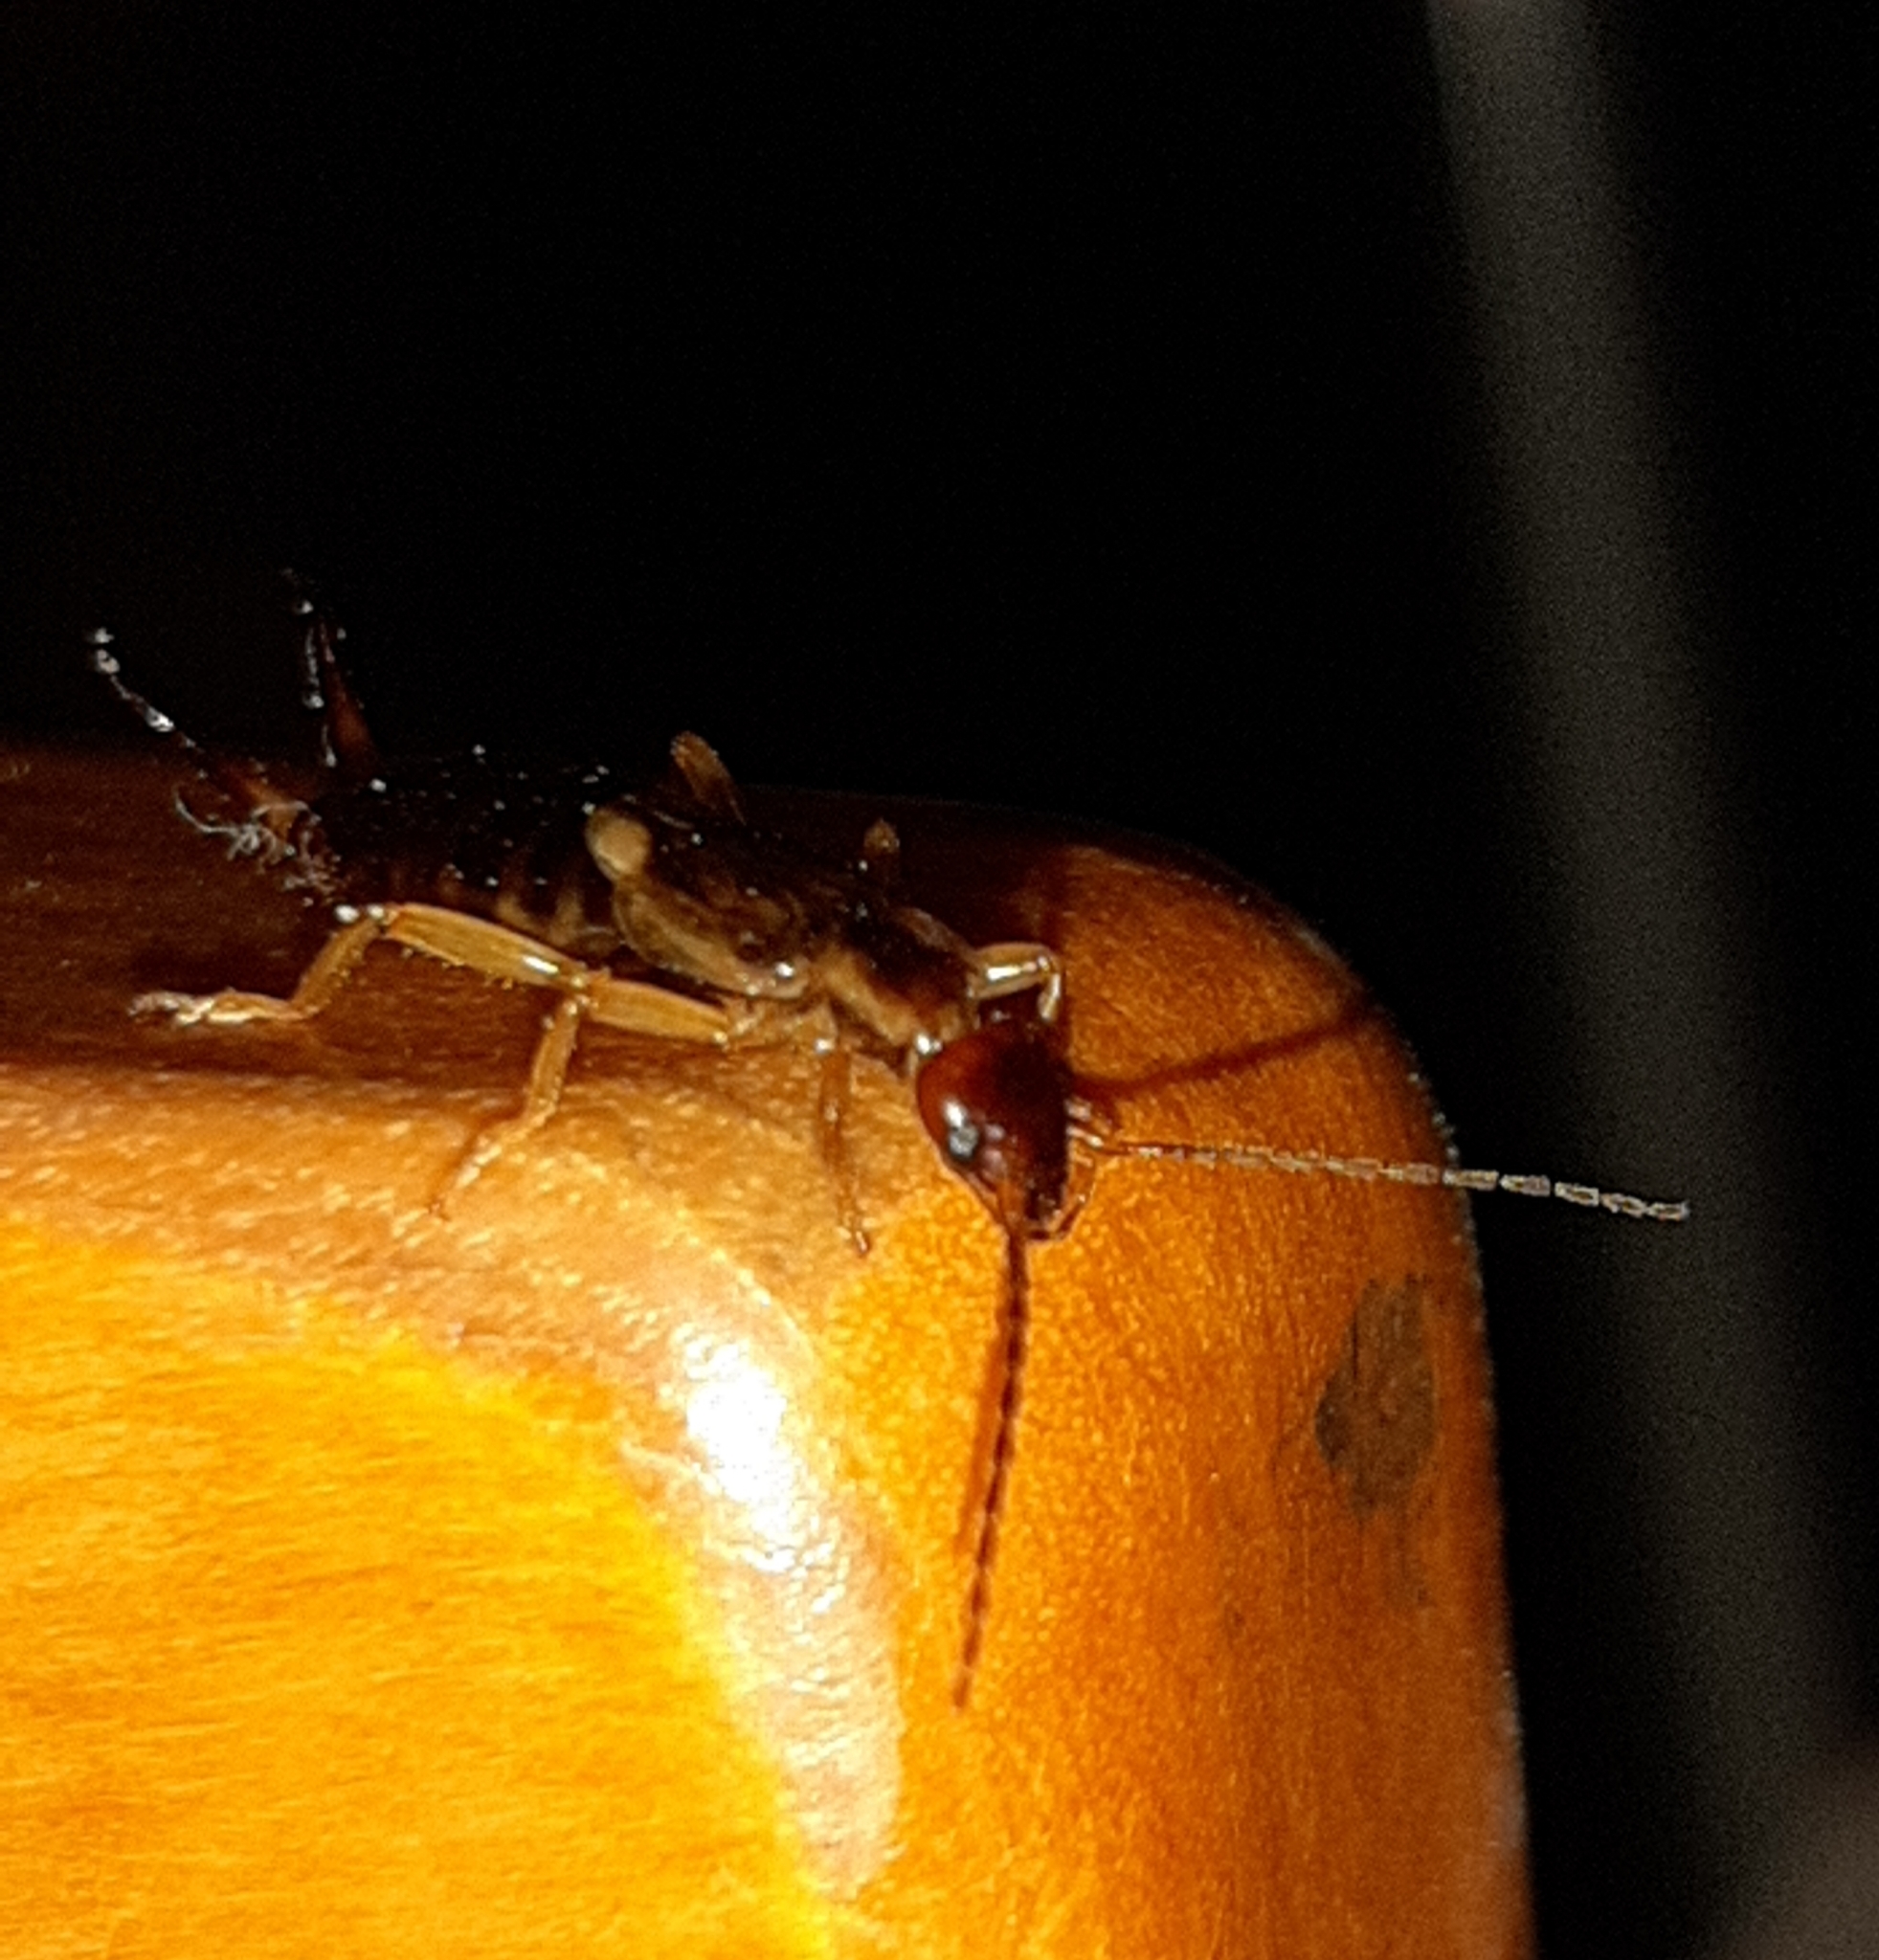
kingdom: Animalia
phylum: Arthropoda
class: Insecta
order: Dermaptera
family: Forficulidae
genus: Forficula
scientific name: Forficula
